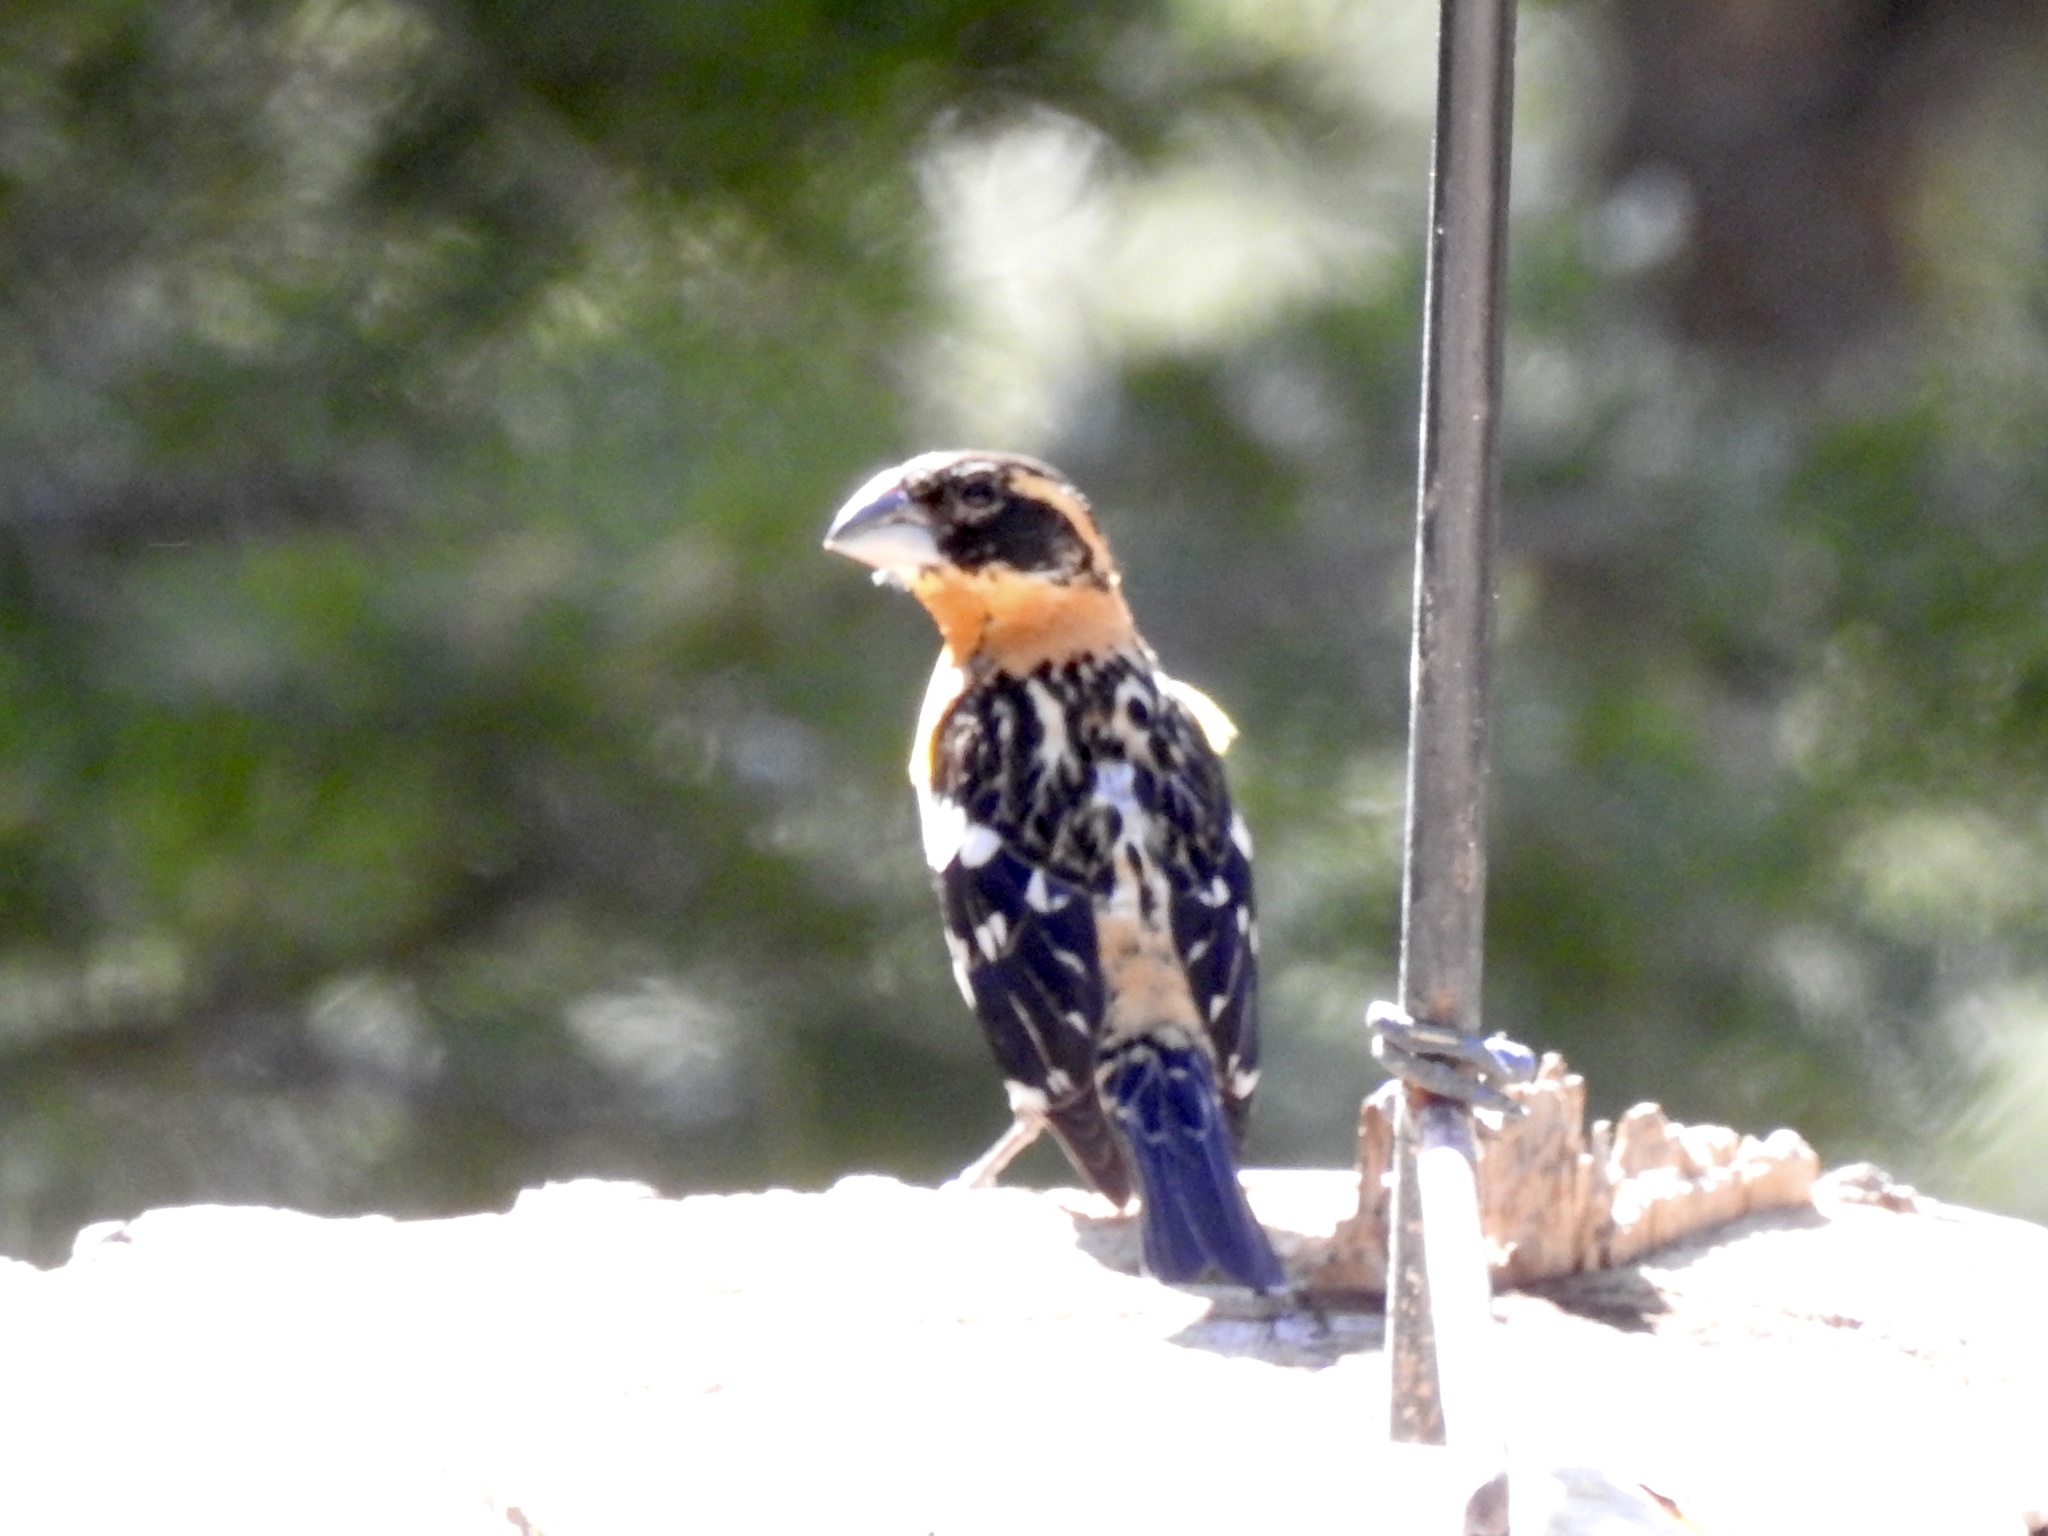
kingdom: Animalia
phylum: Chordata
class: Aves
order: Passeriformes
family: Cardinalidae
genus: Pheucticus
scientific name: Pheucticus melanocephalus
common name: Black-headed grosbeak
